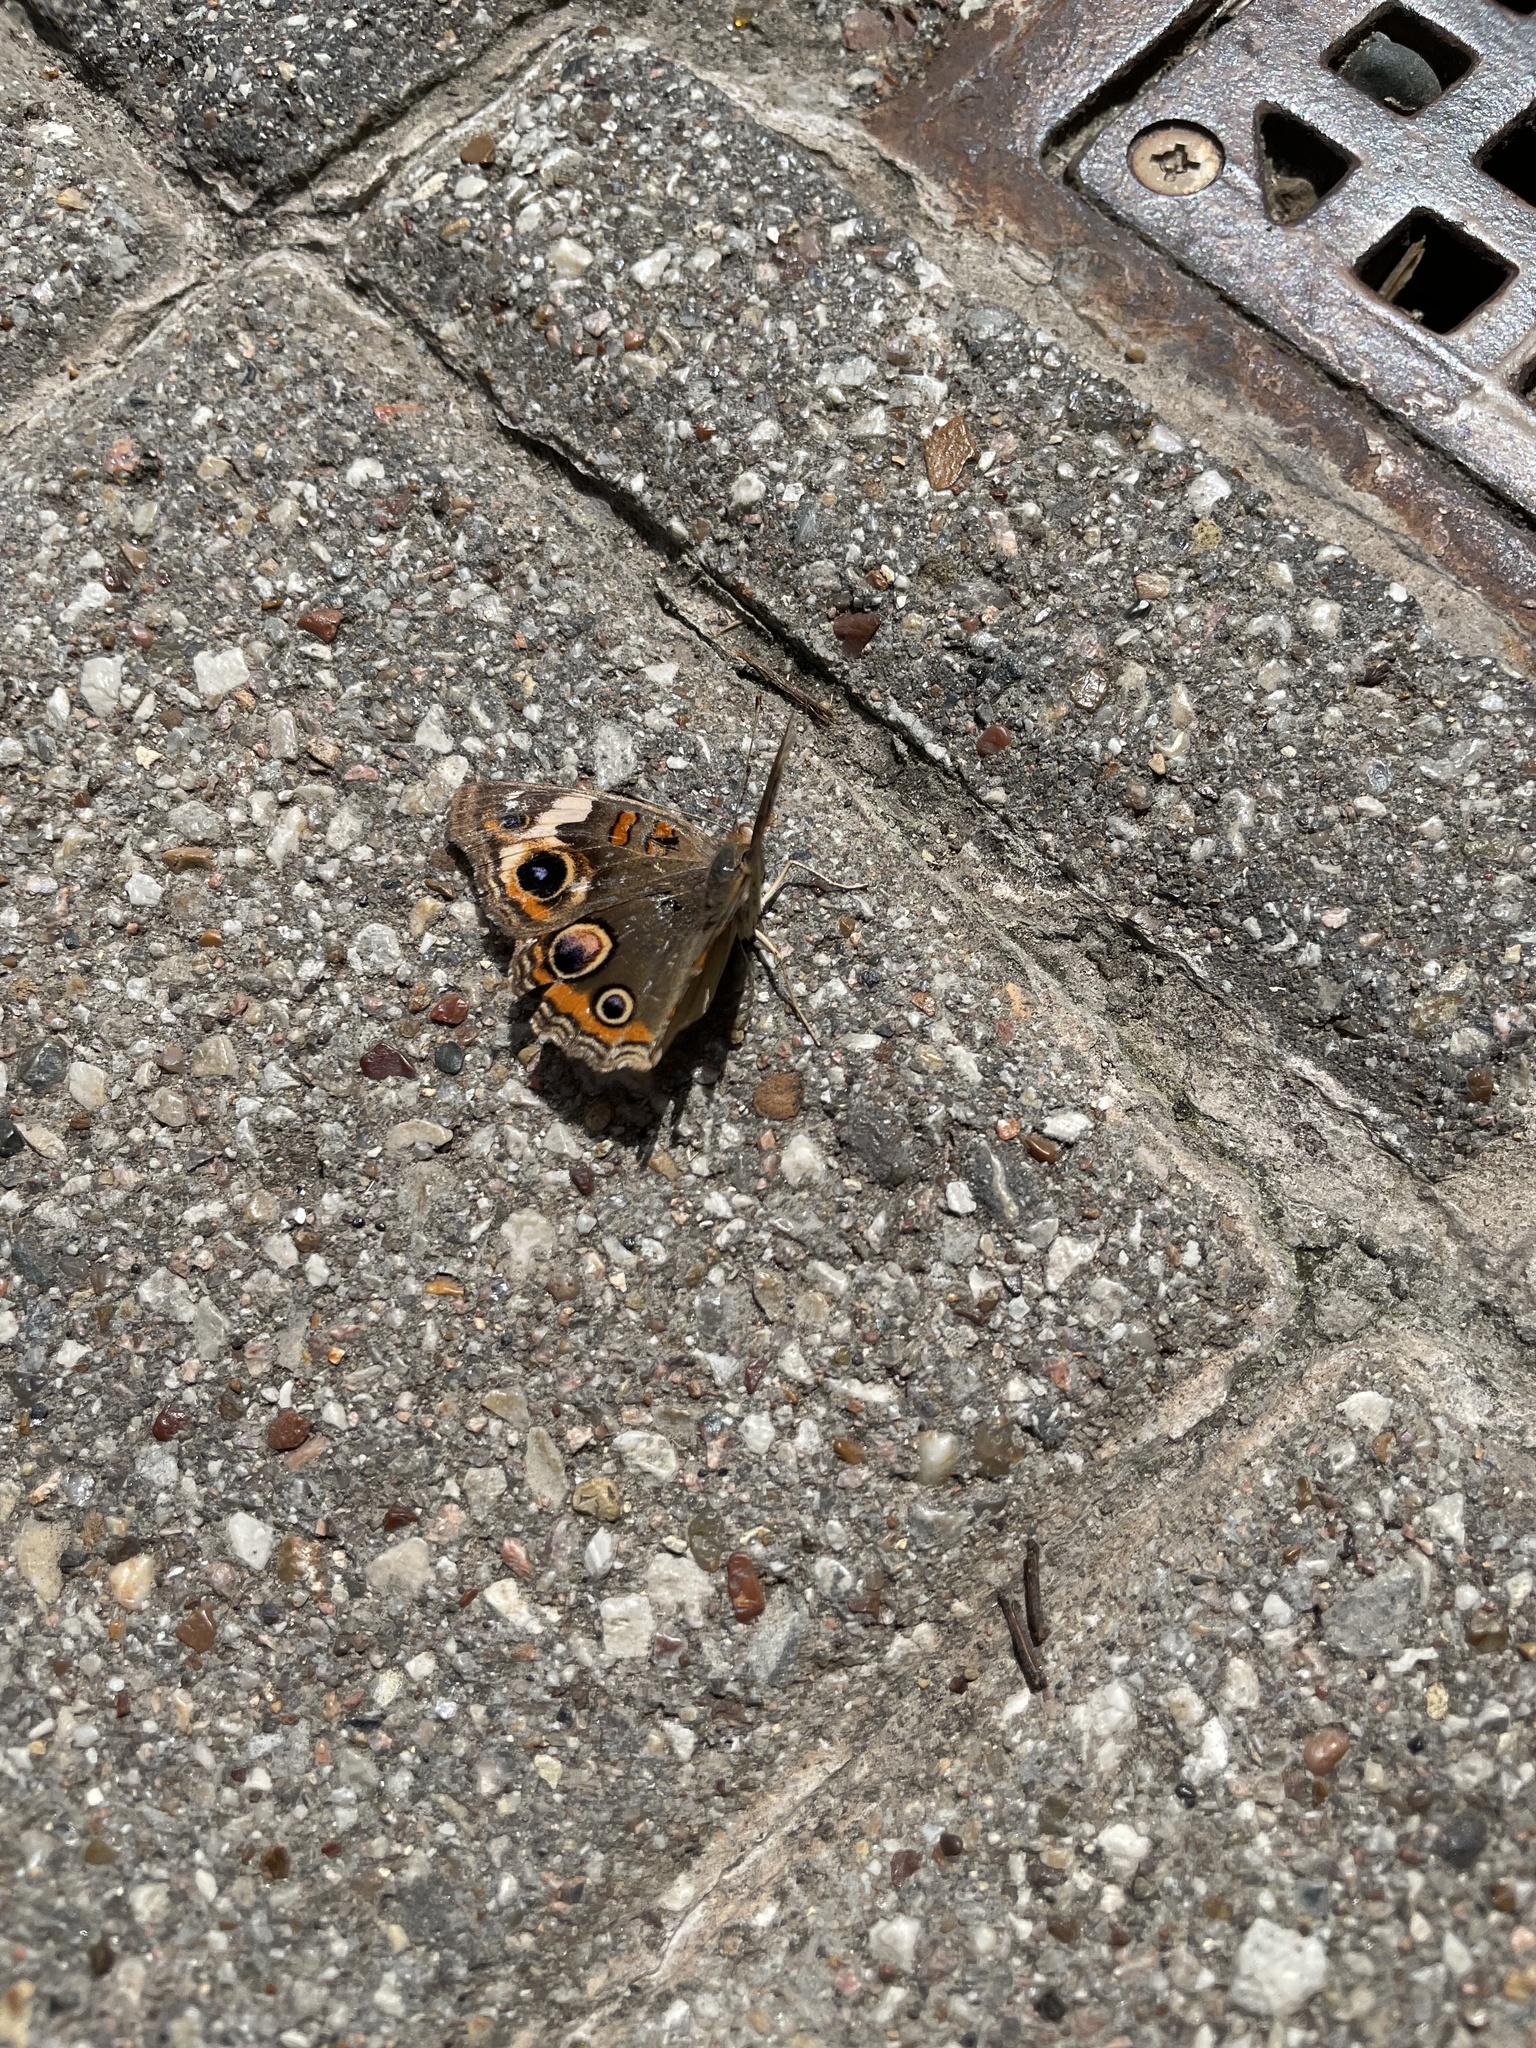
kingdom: Animalia
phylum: Arthropoda
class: Insecta
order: Lepidoptera
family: Nymphalidae
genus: Junonia
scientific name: Junonia coenia
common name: Common buckeye
